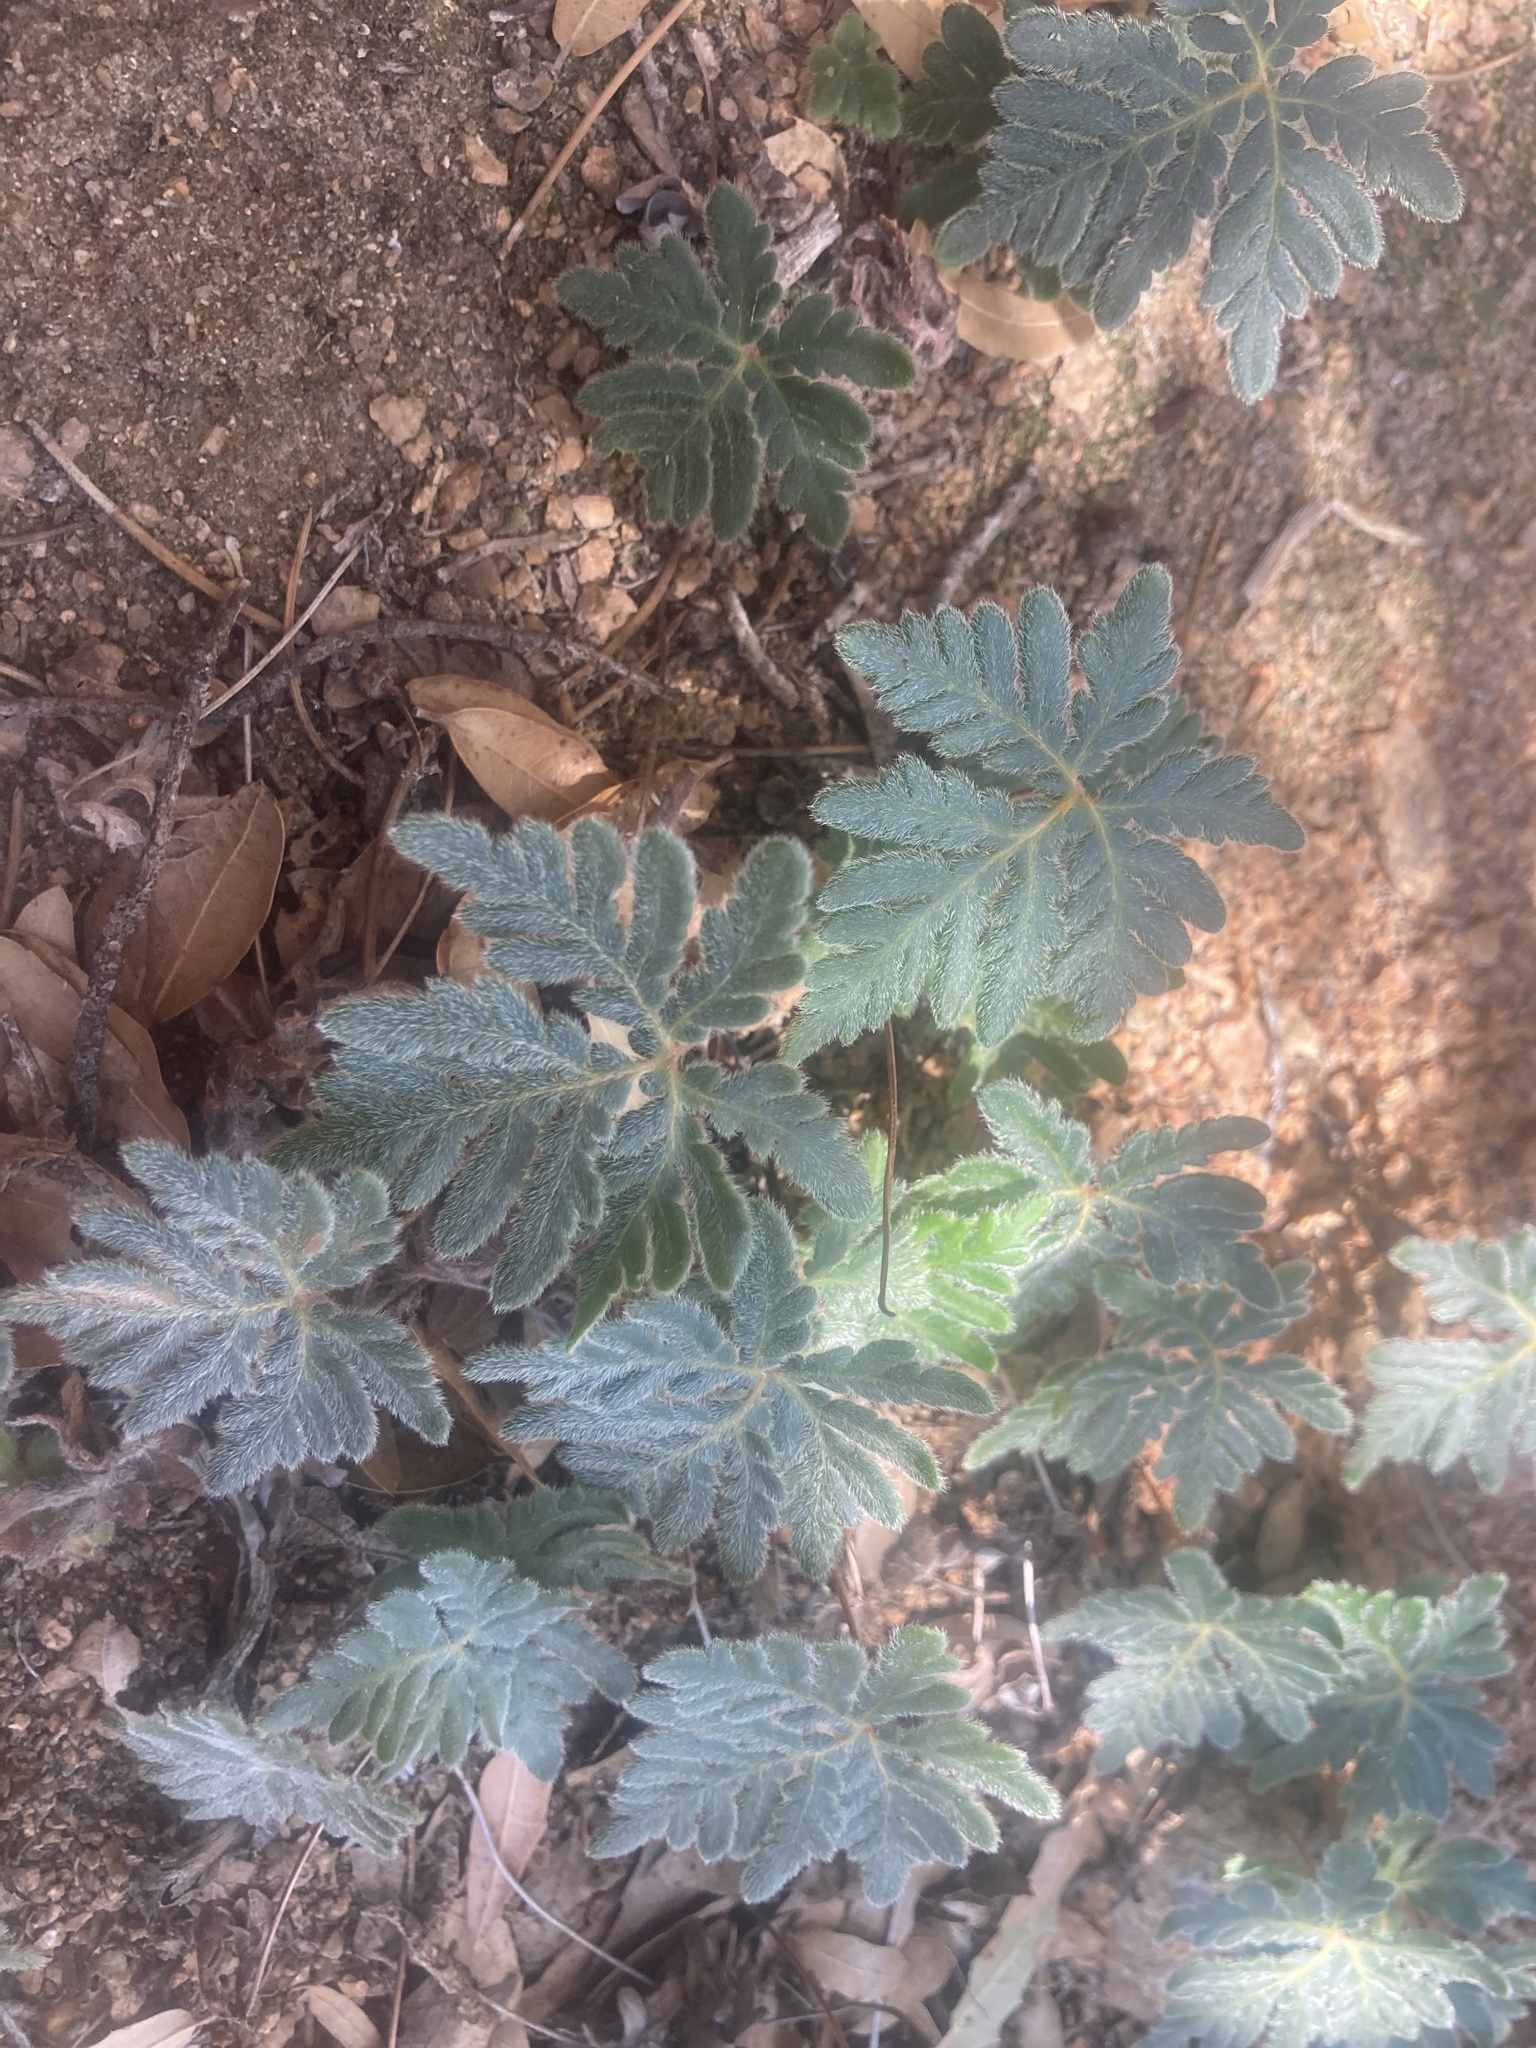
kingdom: Plantae
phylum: Tracheophyta
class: Polypodiopsida
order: Polypodiales
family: Pteridaceae
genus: Bommeria
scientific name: Bommeria hispida
